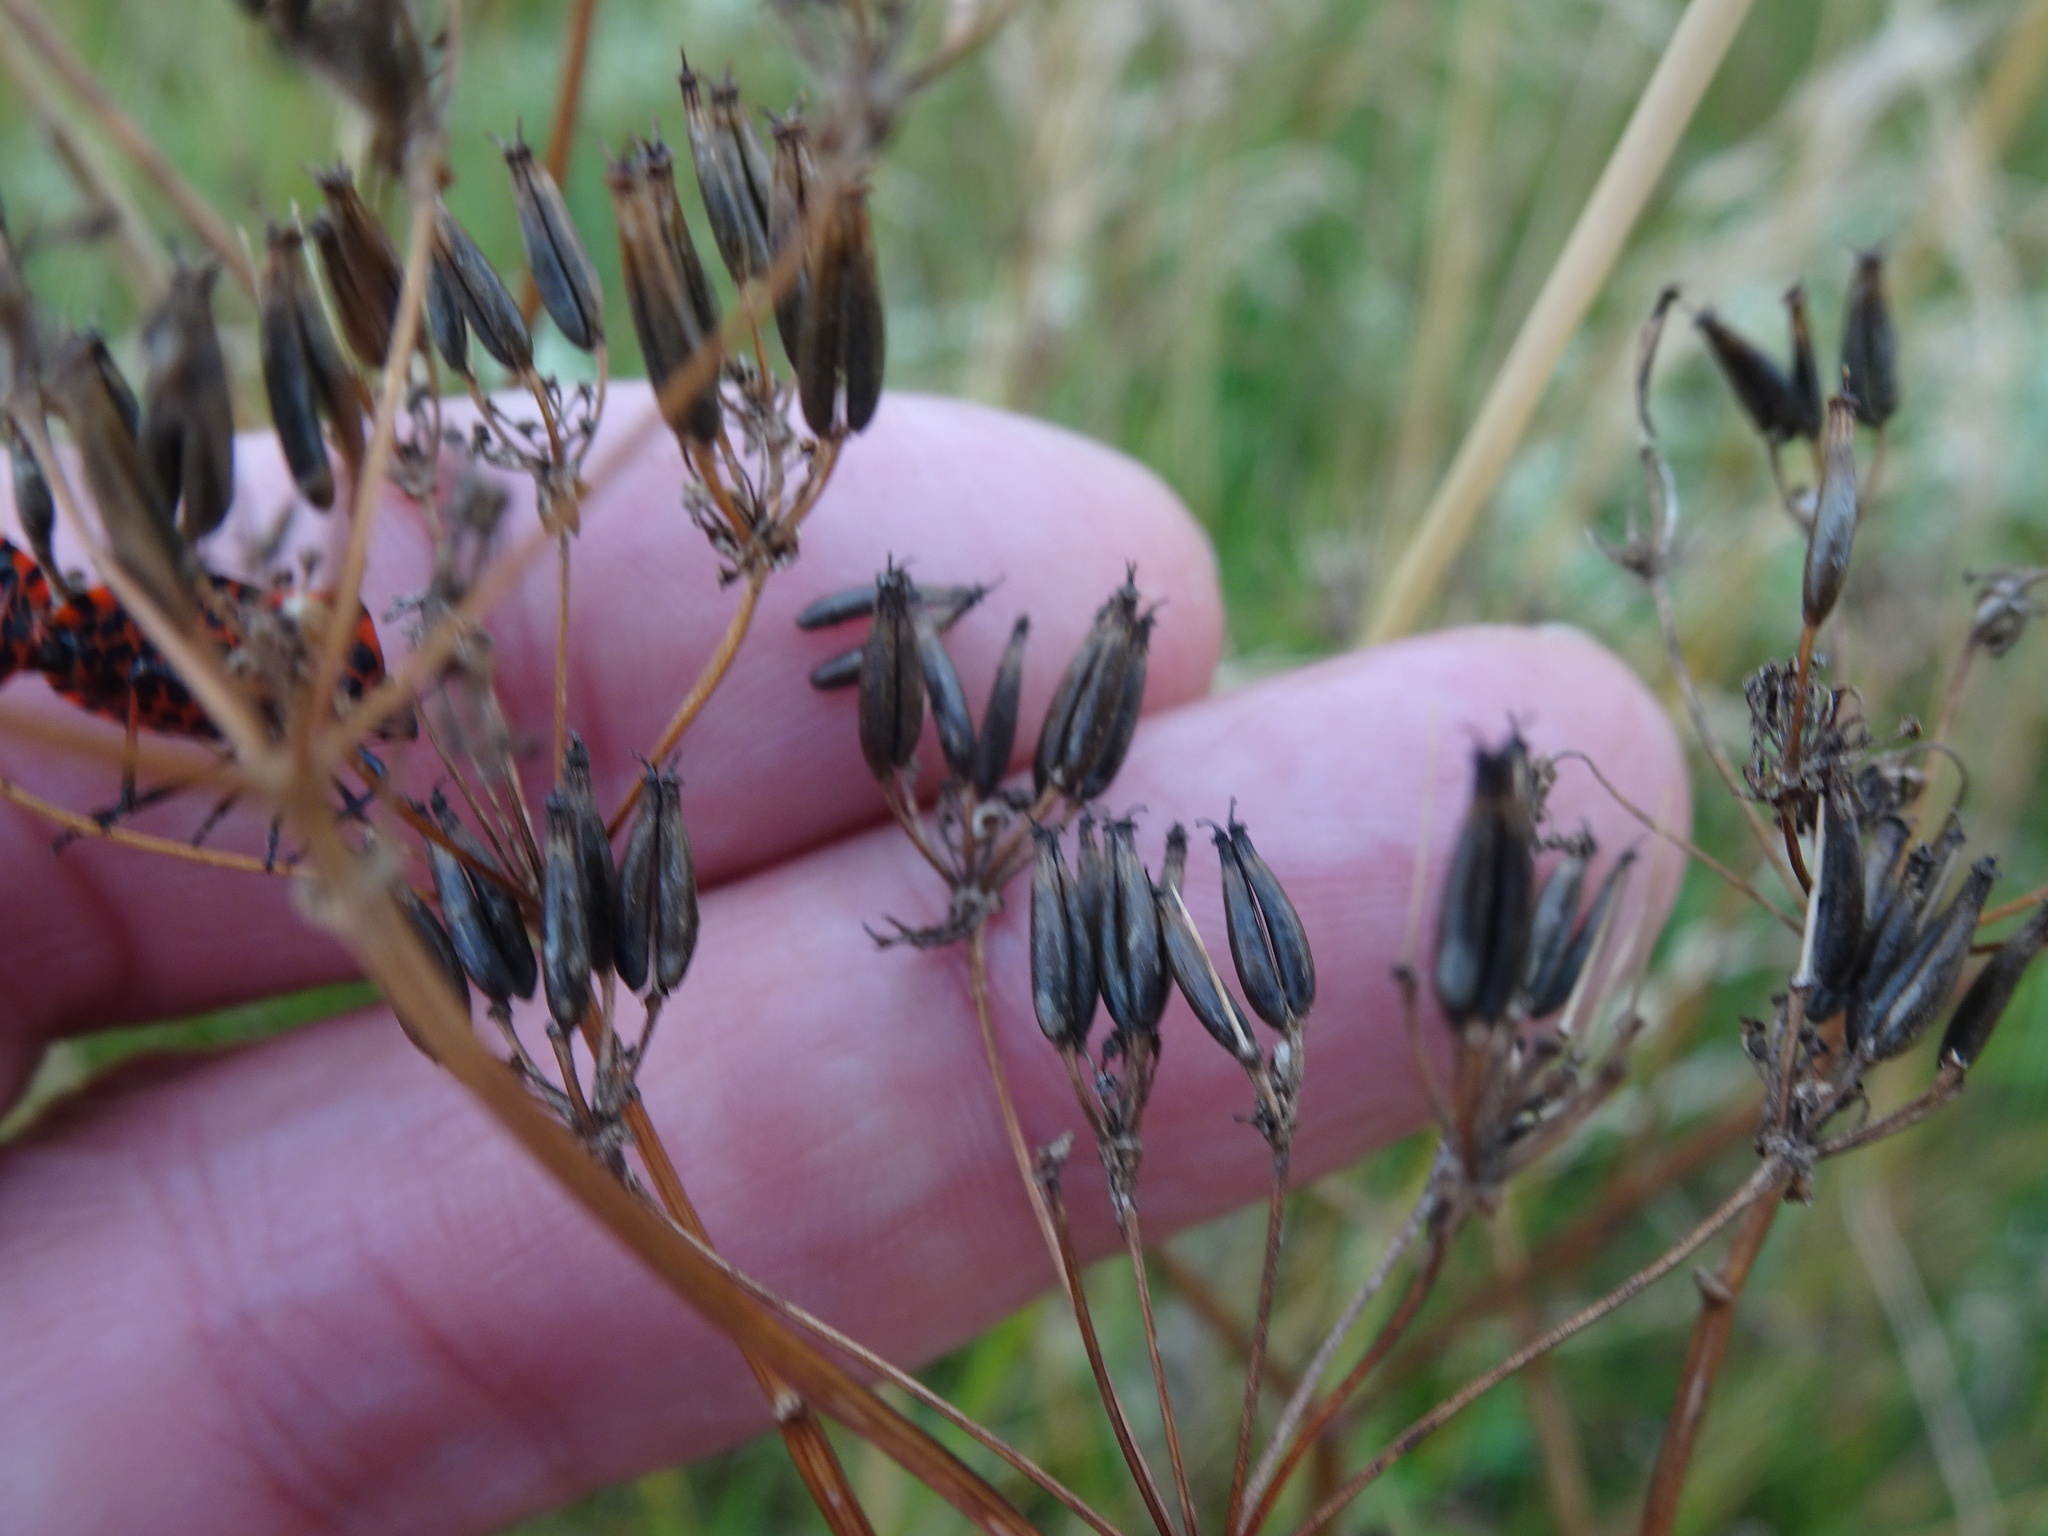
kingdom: Plantae
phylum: Tracheophyta
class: Magnoliopsida
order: Apiales
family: Apiaceae
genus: Anthriscus
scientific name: Anthriscus sylvestris
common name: Cow parsley
